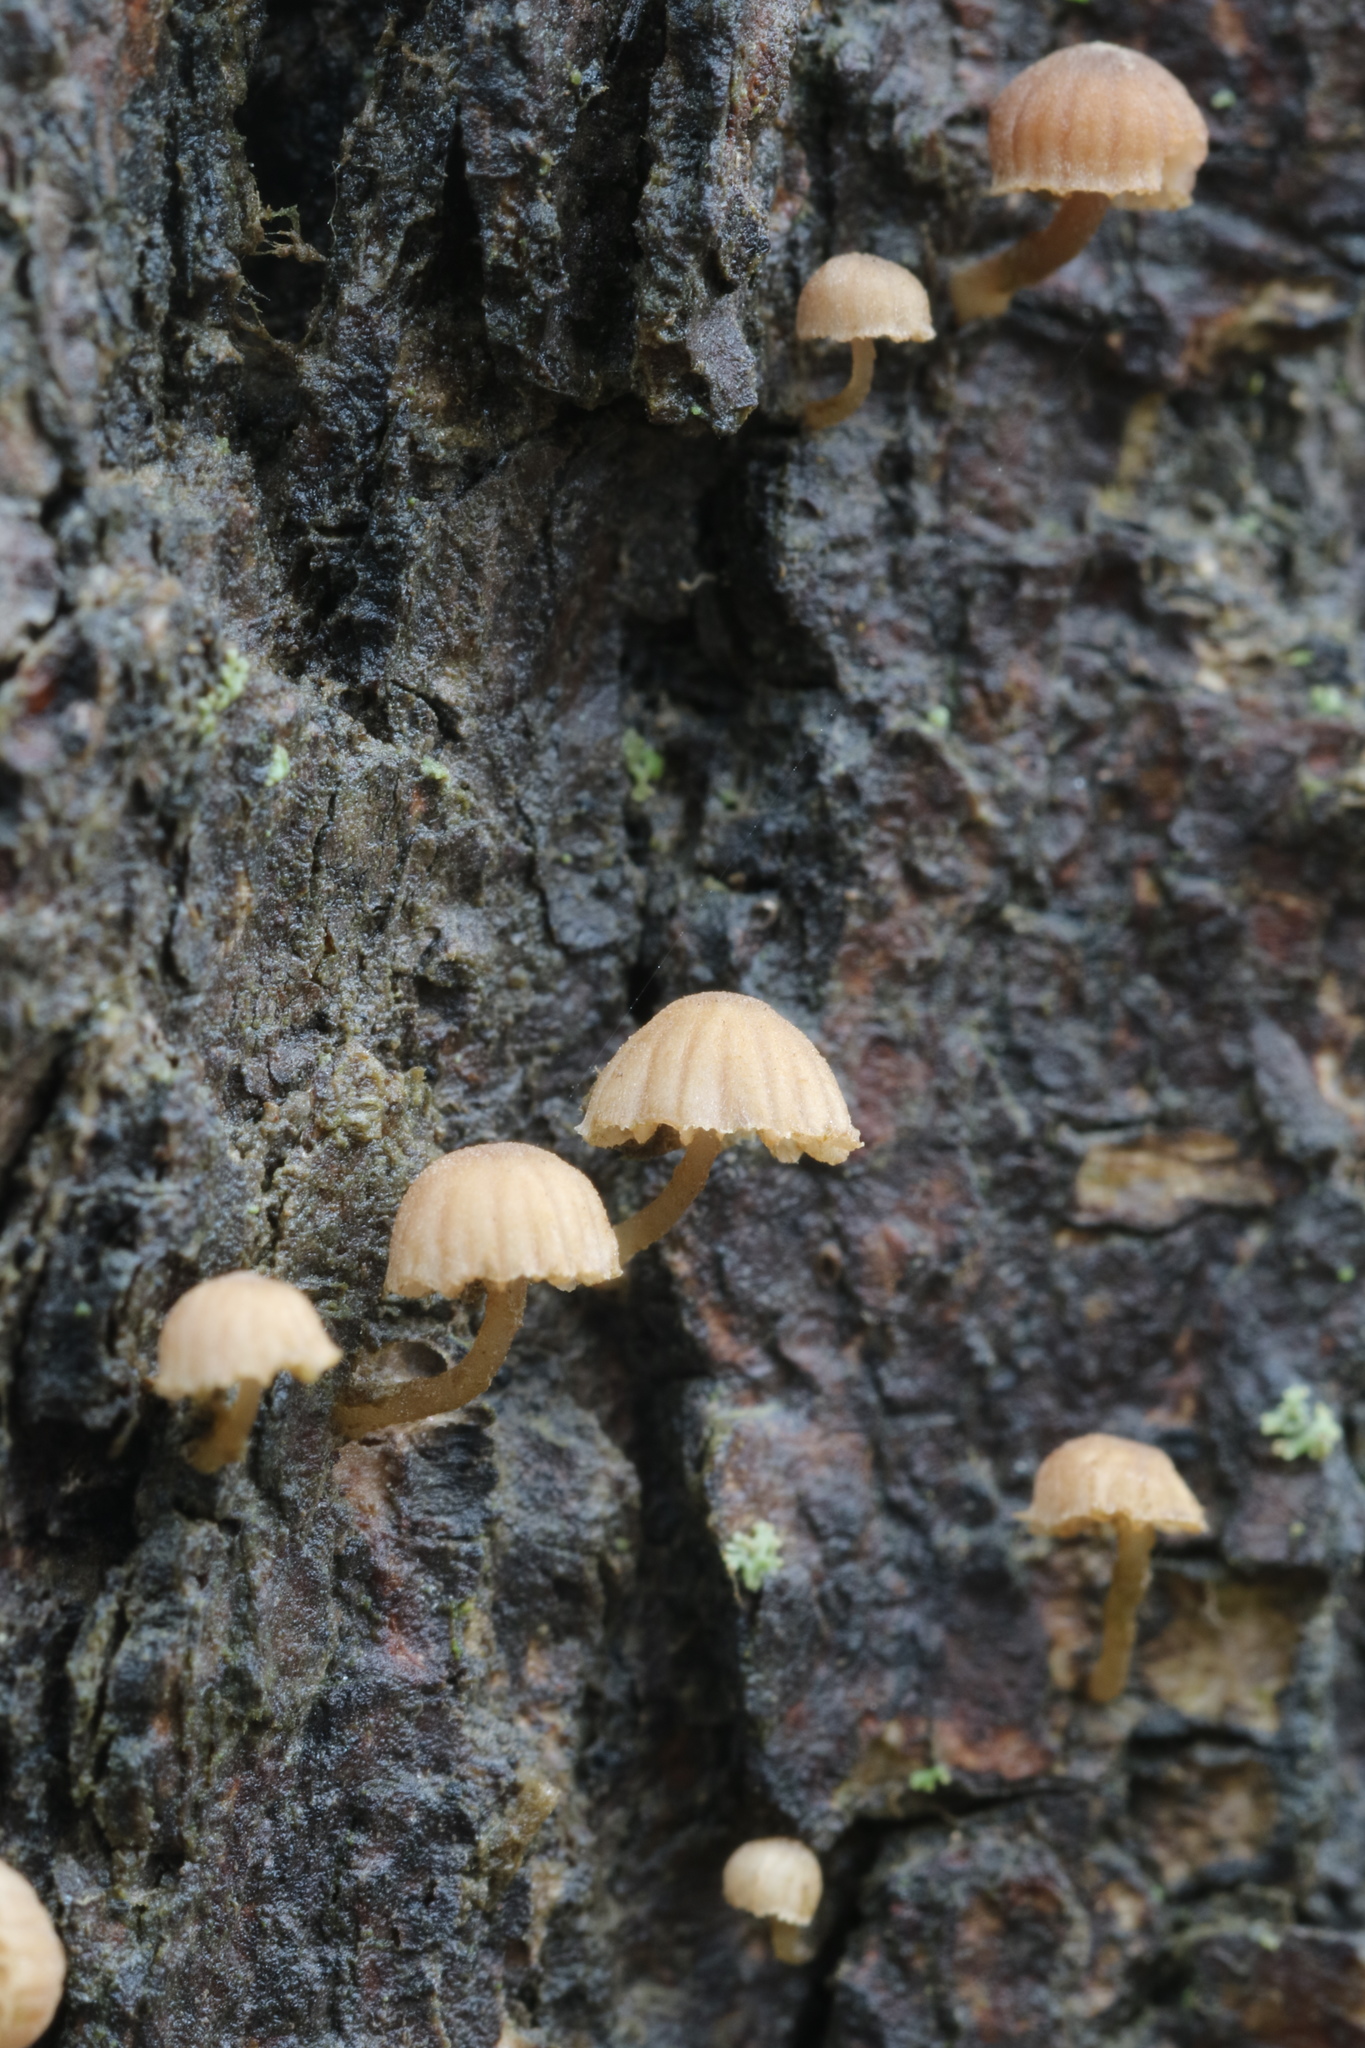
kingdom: Fungi
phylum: Basidiomycota
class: Agaricomycetes
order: Agaricales
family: Mycenaceae
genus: Mycena
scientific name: Mycena meliigena
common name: Mauve bonnet
